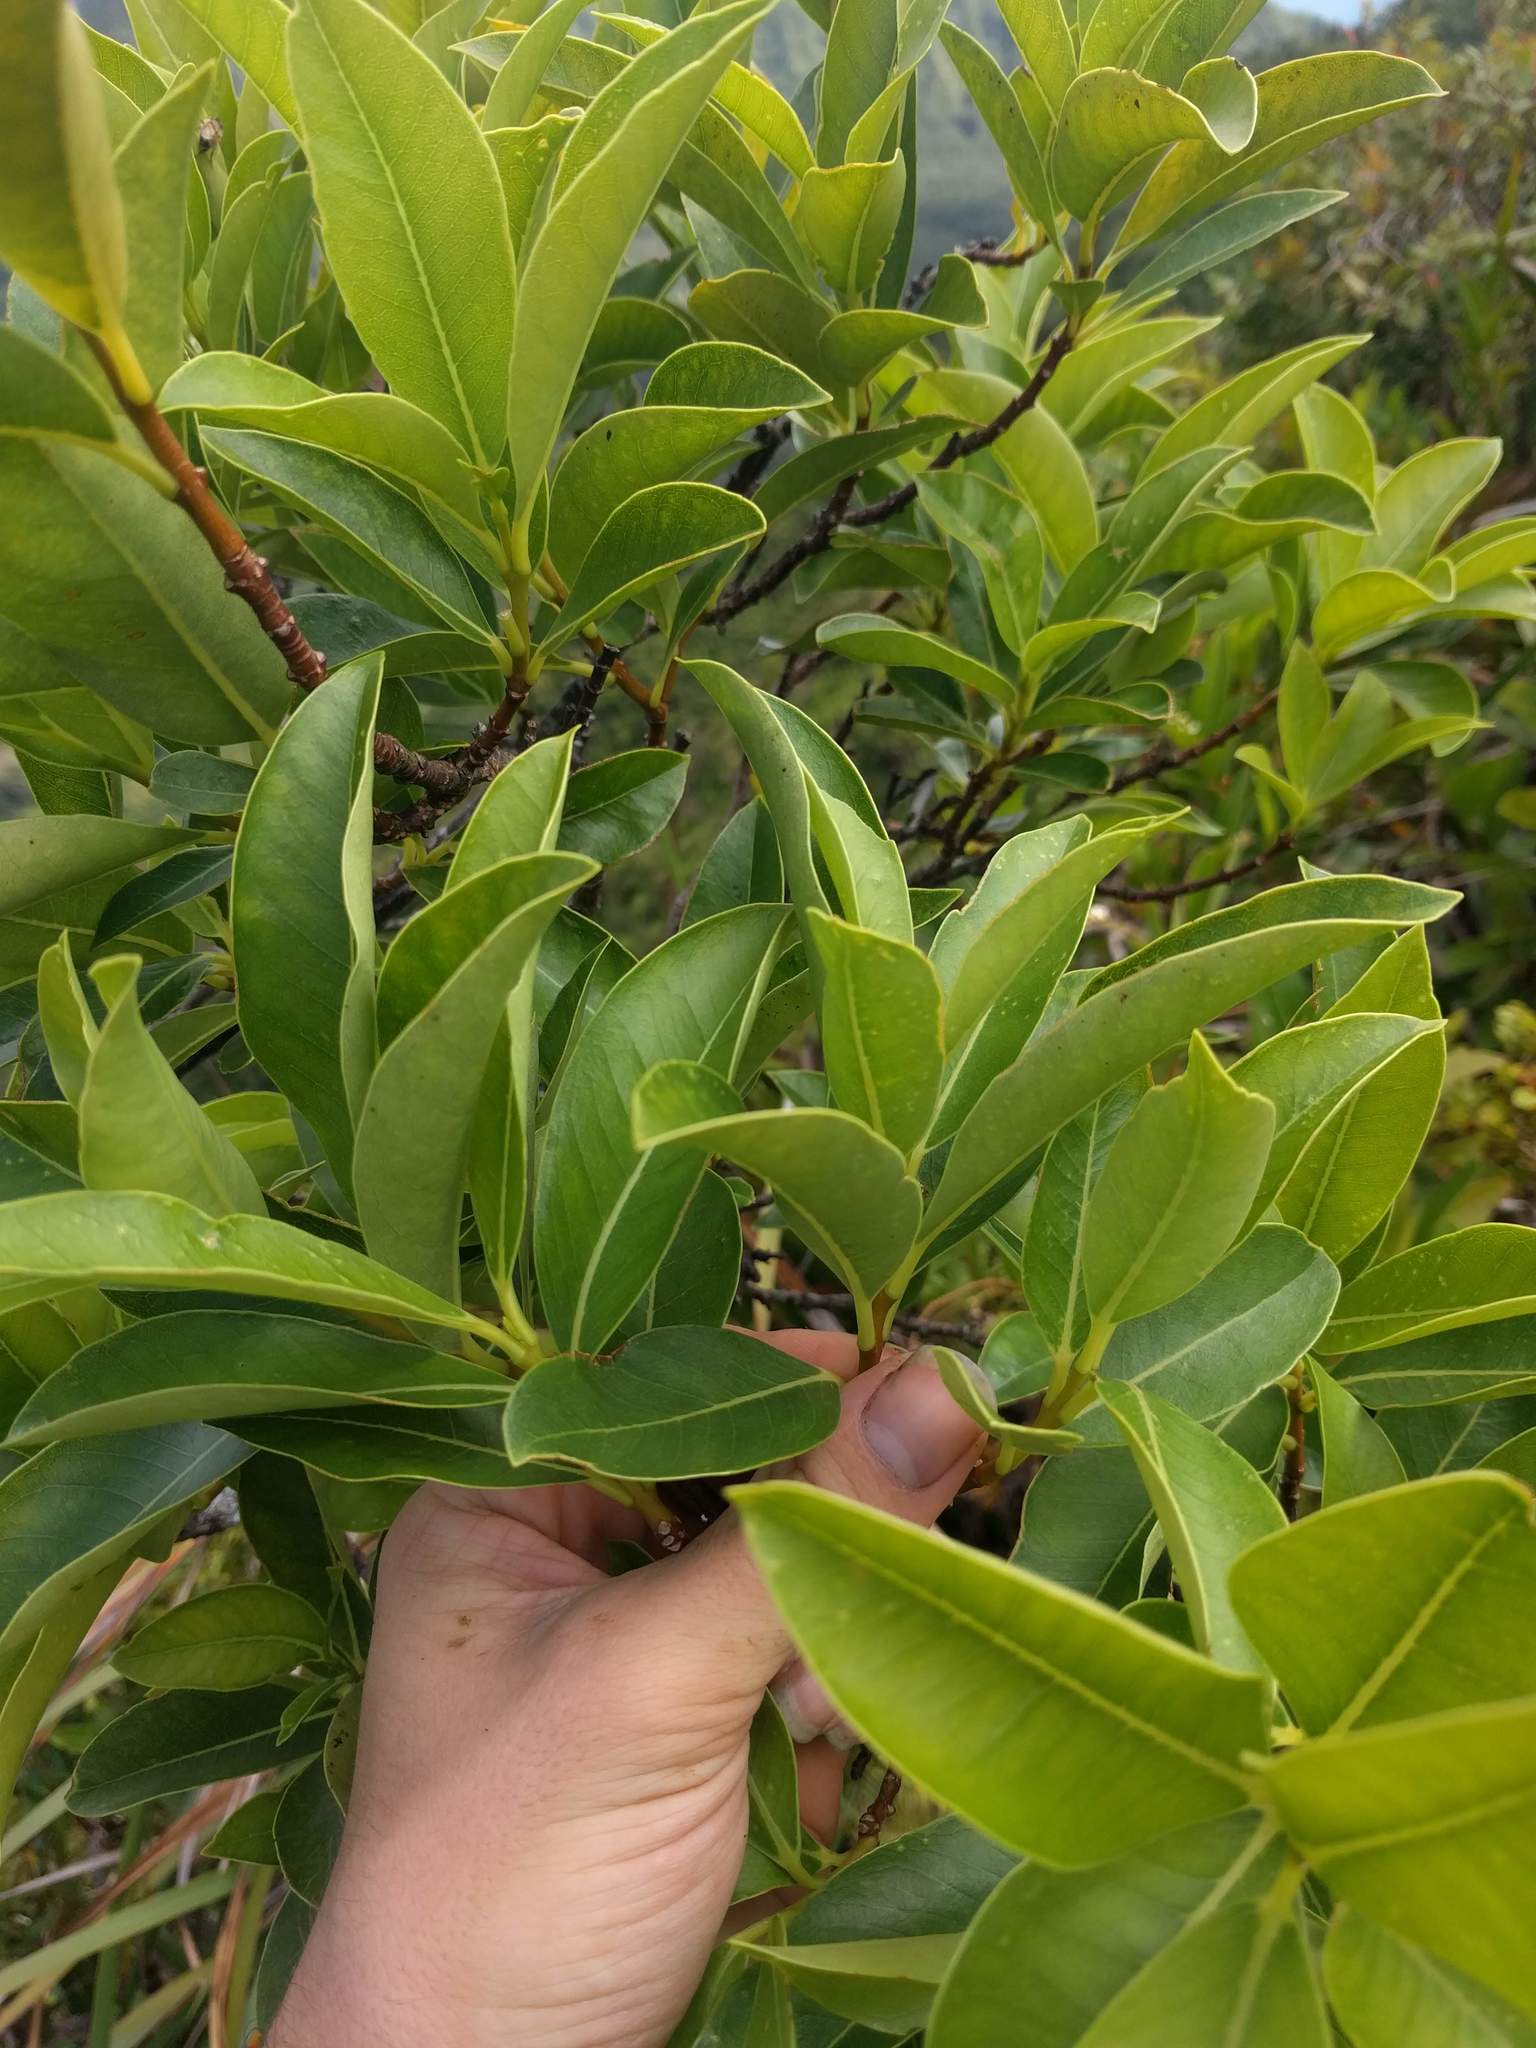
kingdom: Plantae
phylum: Tracheophyta
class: Magnoliopsida
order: Malvales
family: Thymelaeaceae
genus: Wikstroemia
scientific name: Wikstroemia oahuensis
